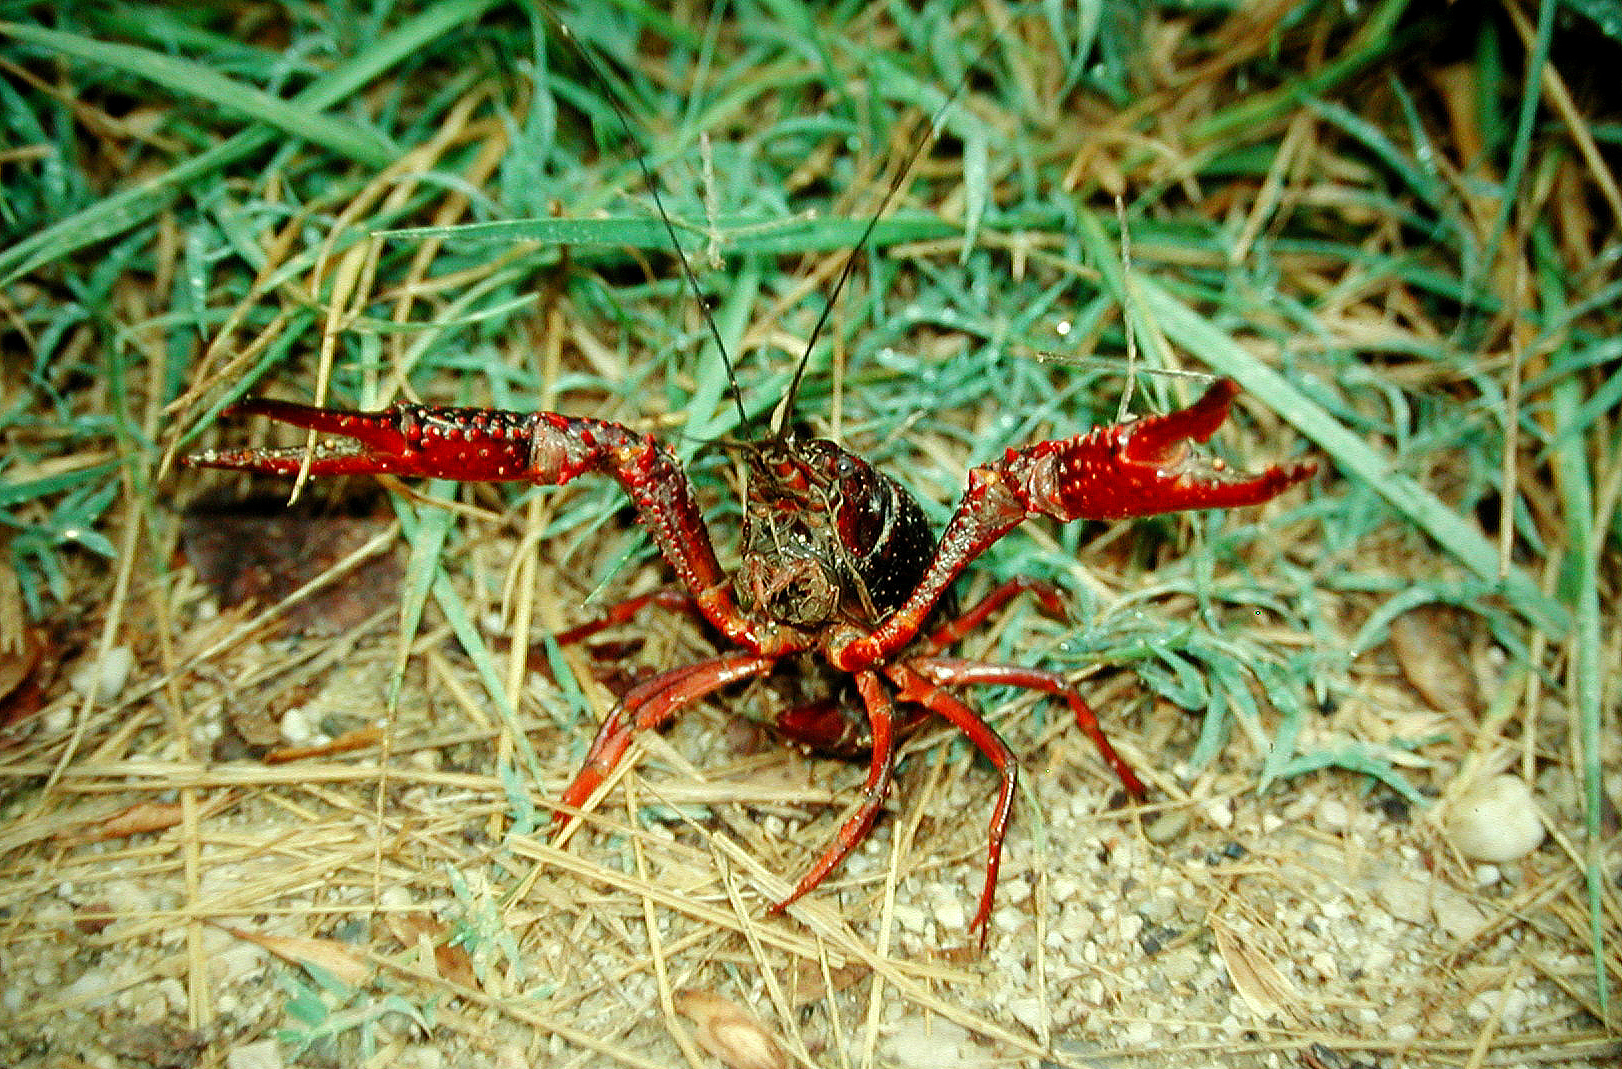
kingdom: Animalia
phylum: Arthropoda
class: Malacostraca
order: Decapoda
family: Cambaridae
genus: Procambarus
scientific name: Procambarus clarkii
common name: Red swamp crayfish
